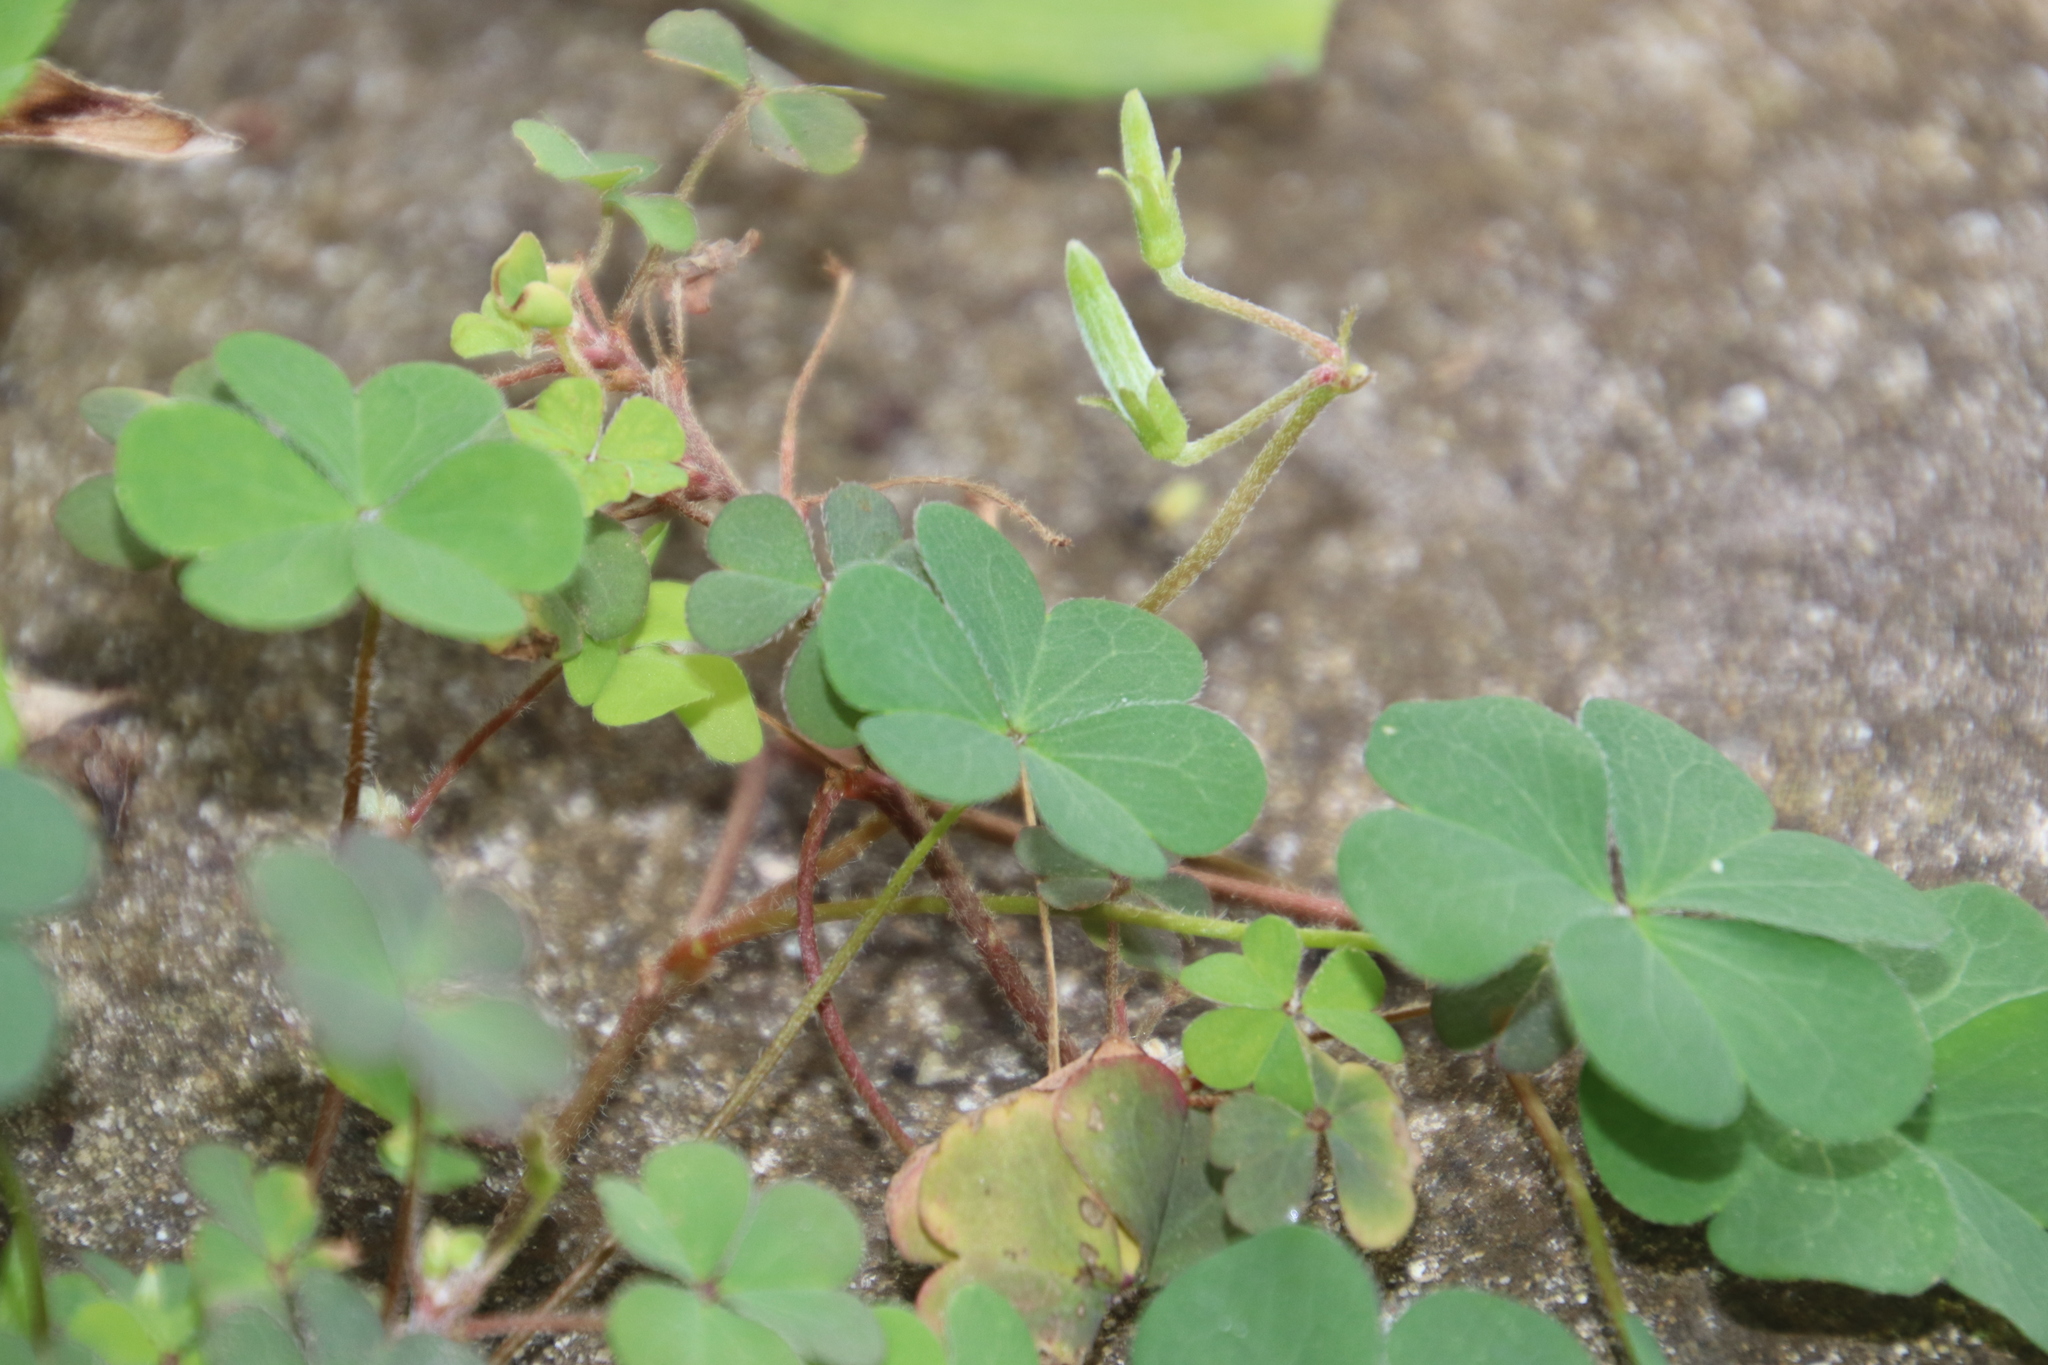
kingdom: Plantae
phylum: Tracheophyta
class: Magnoliopsida
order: Oxalidales
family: Oxalidaceae
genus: Oxalis
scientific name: Oxalis corniculata
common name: Procumbent yellow-sorrel
